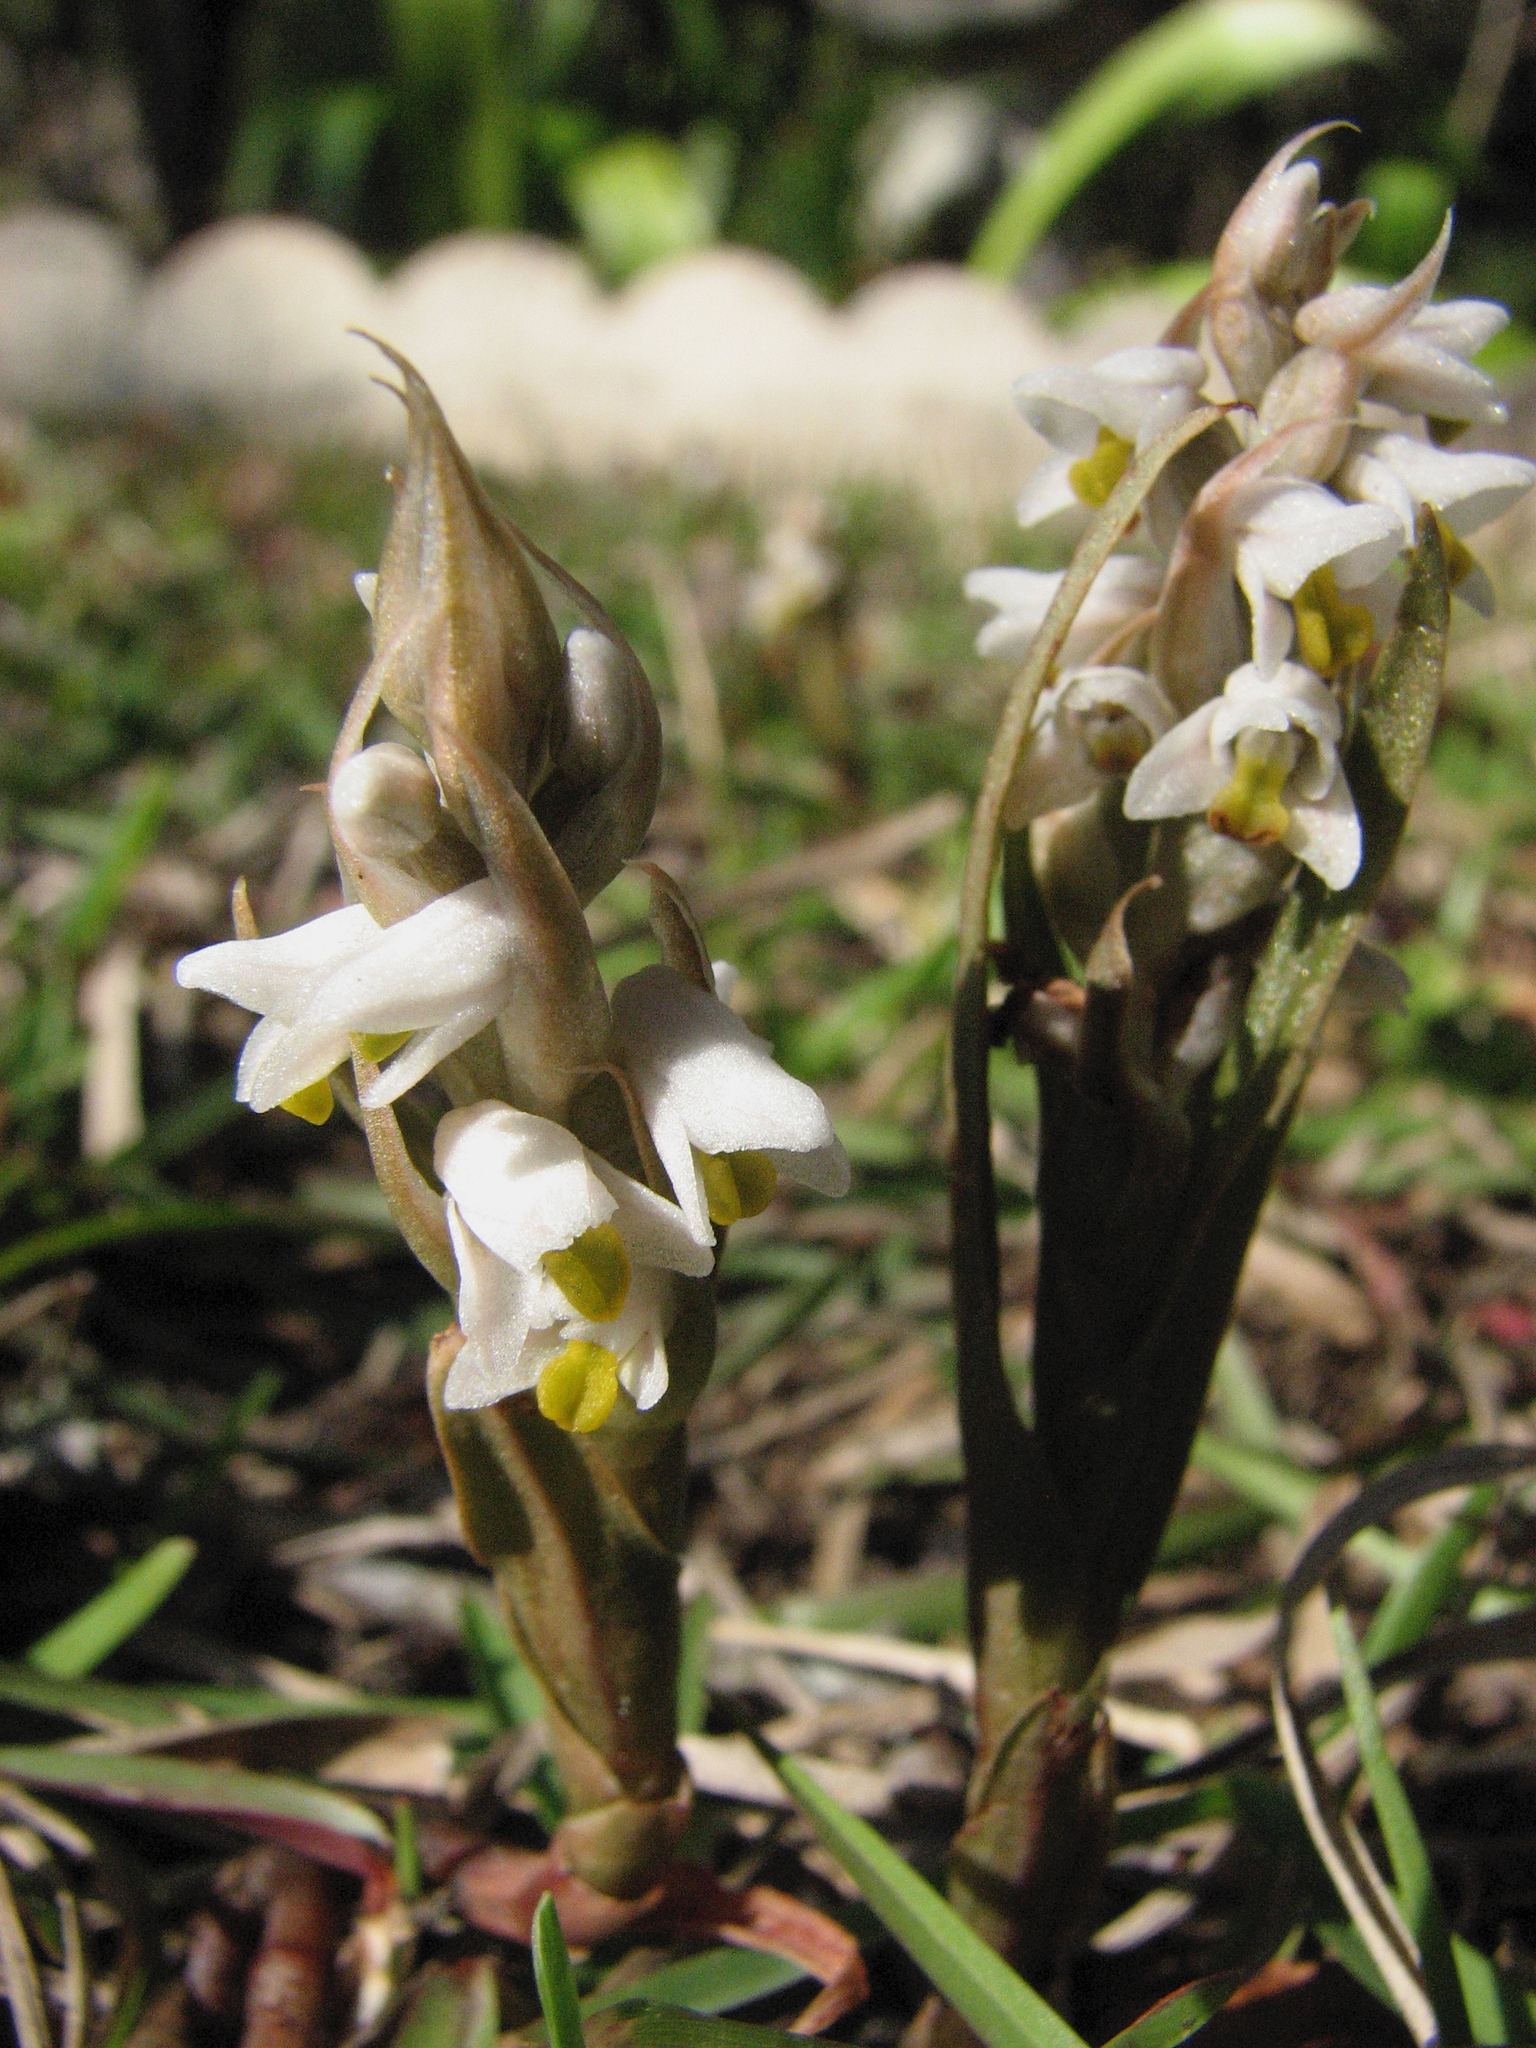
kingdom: Plantae
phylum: Tracheophyta
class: Liliopsida
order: Asparagales
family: Orchidaceae
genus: Zeuxine
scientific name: Zeuxine strateumatica
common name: Soldier's orchid
